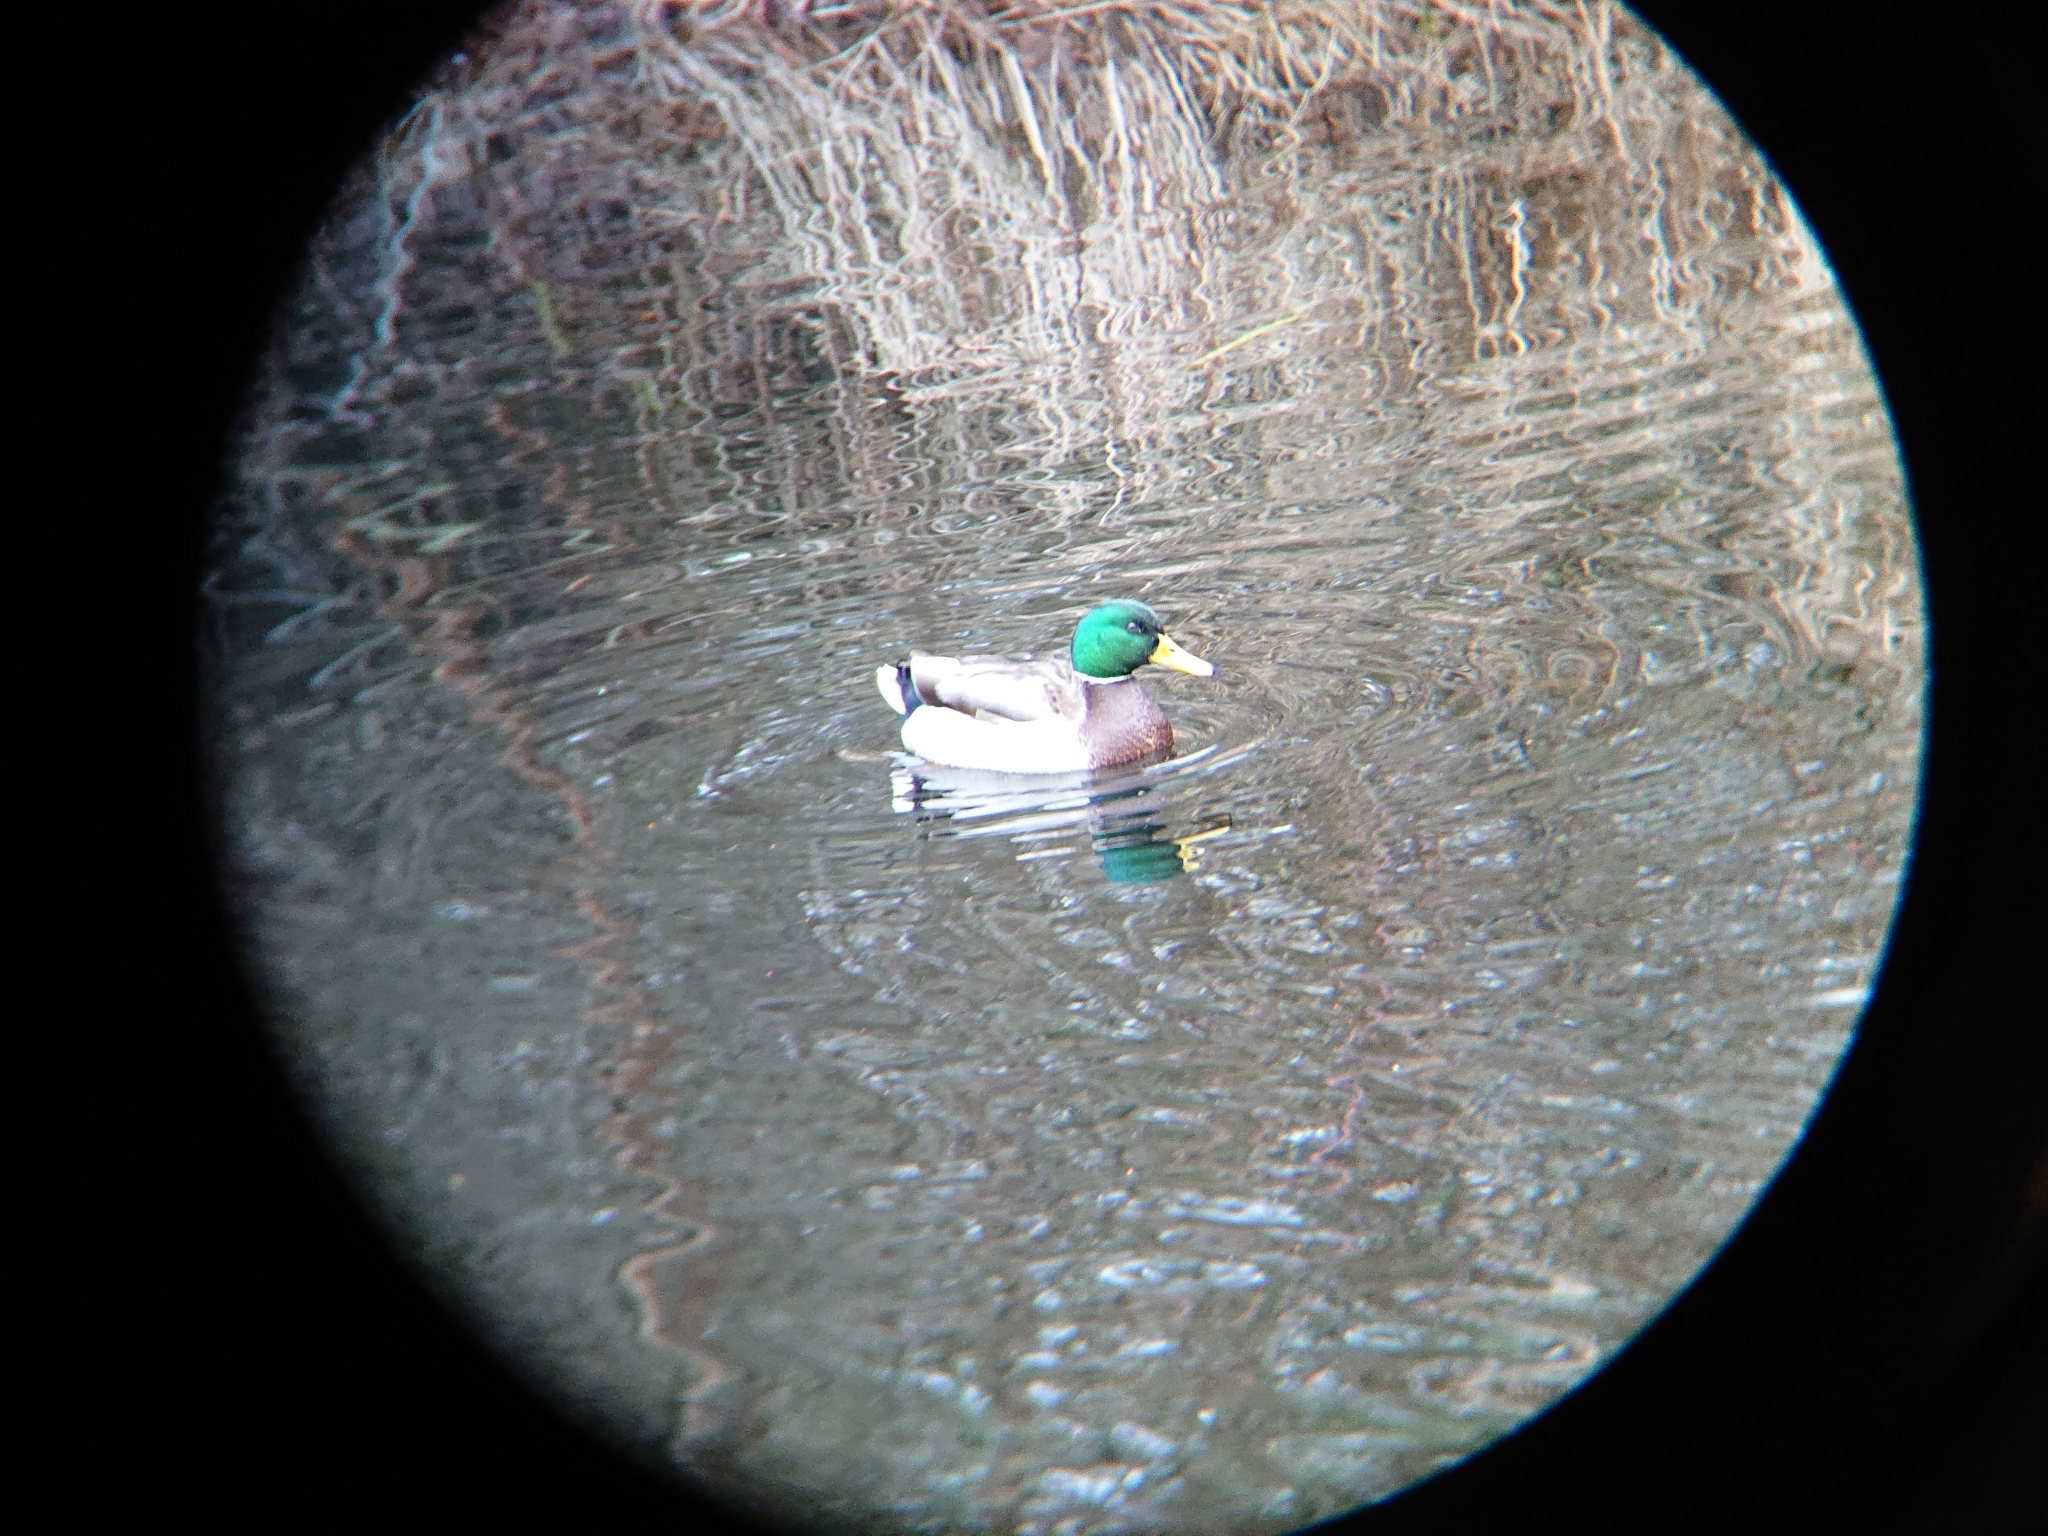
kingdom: Animalia
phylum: Chordata
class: Aves
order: Anseriformes
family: Anatidae
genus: Anas
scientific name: Anas platyrhynchos
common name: Mallard
